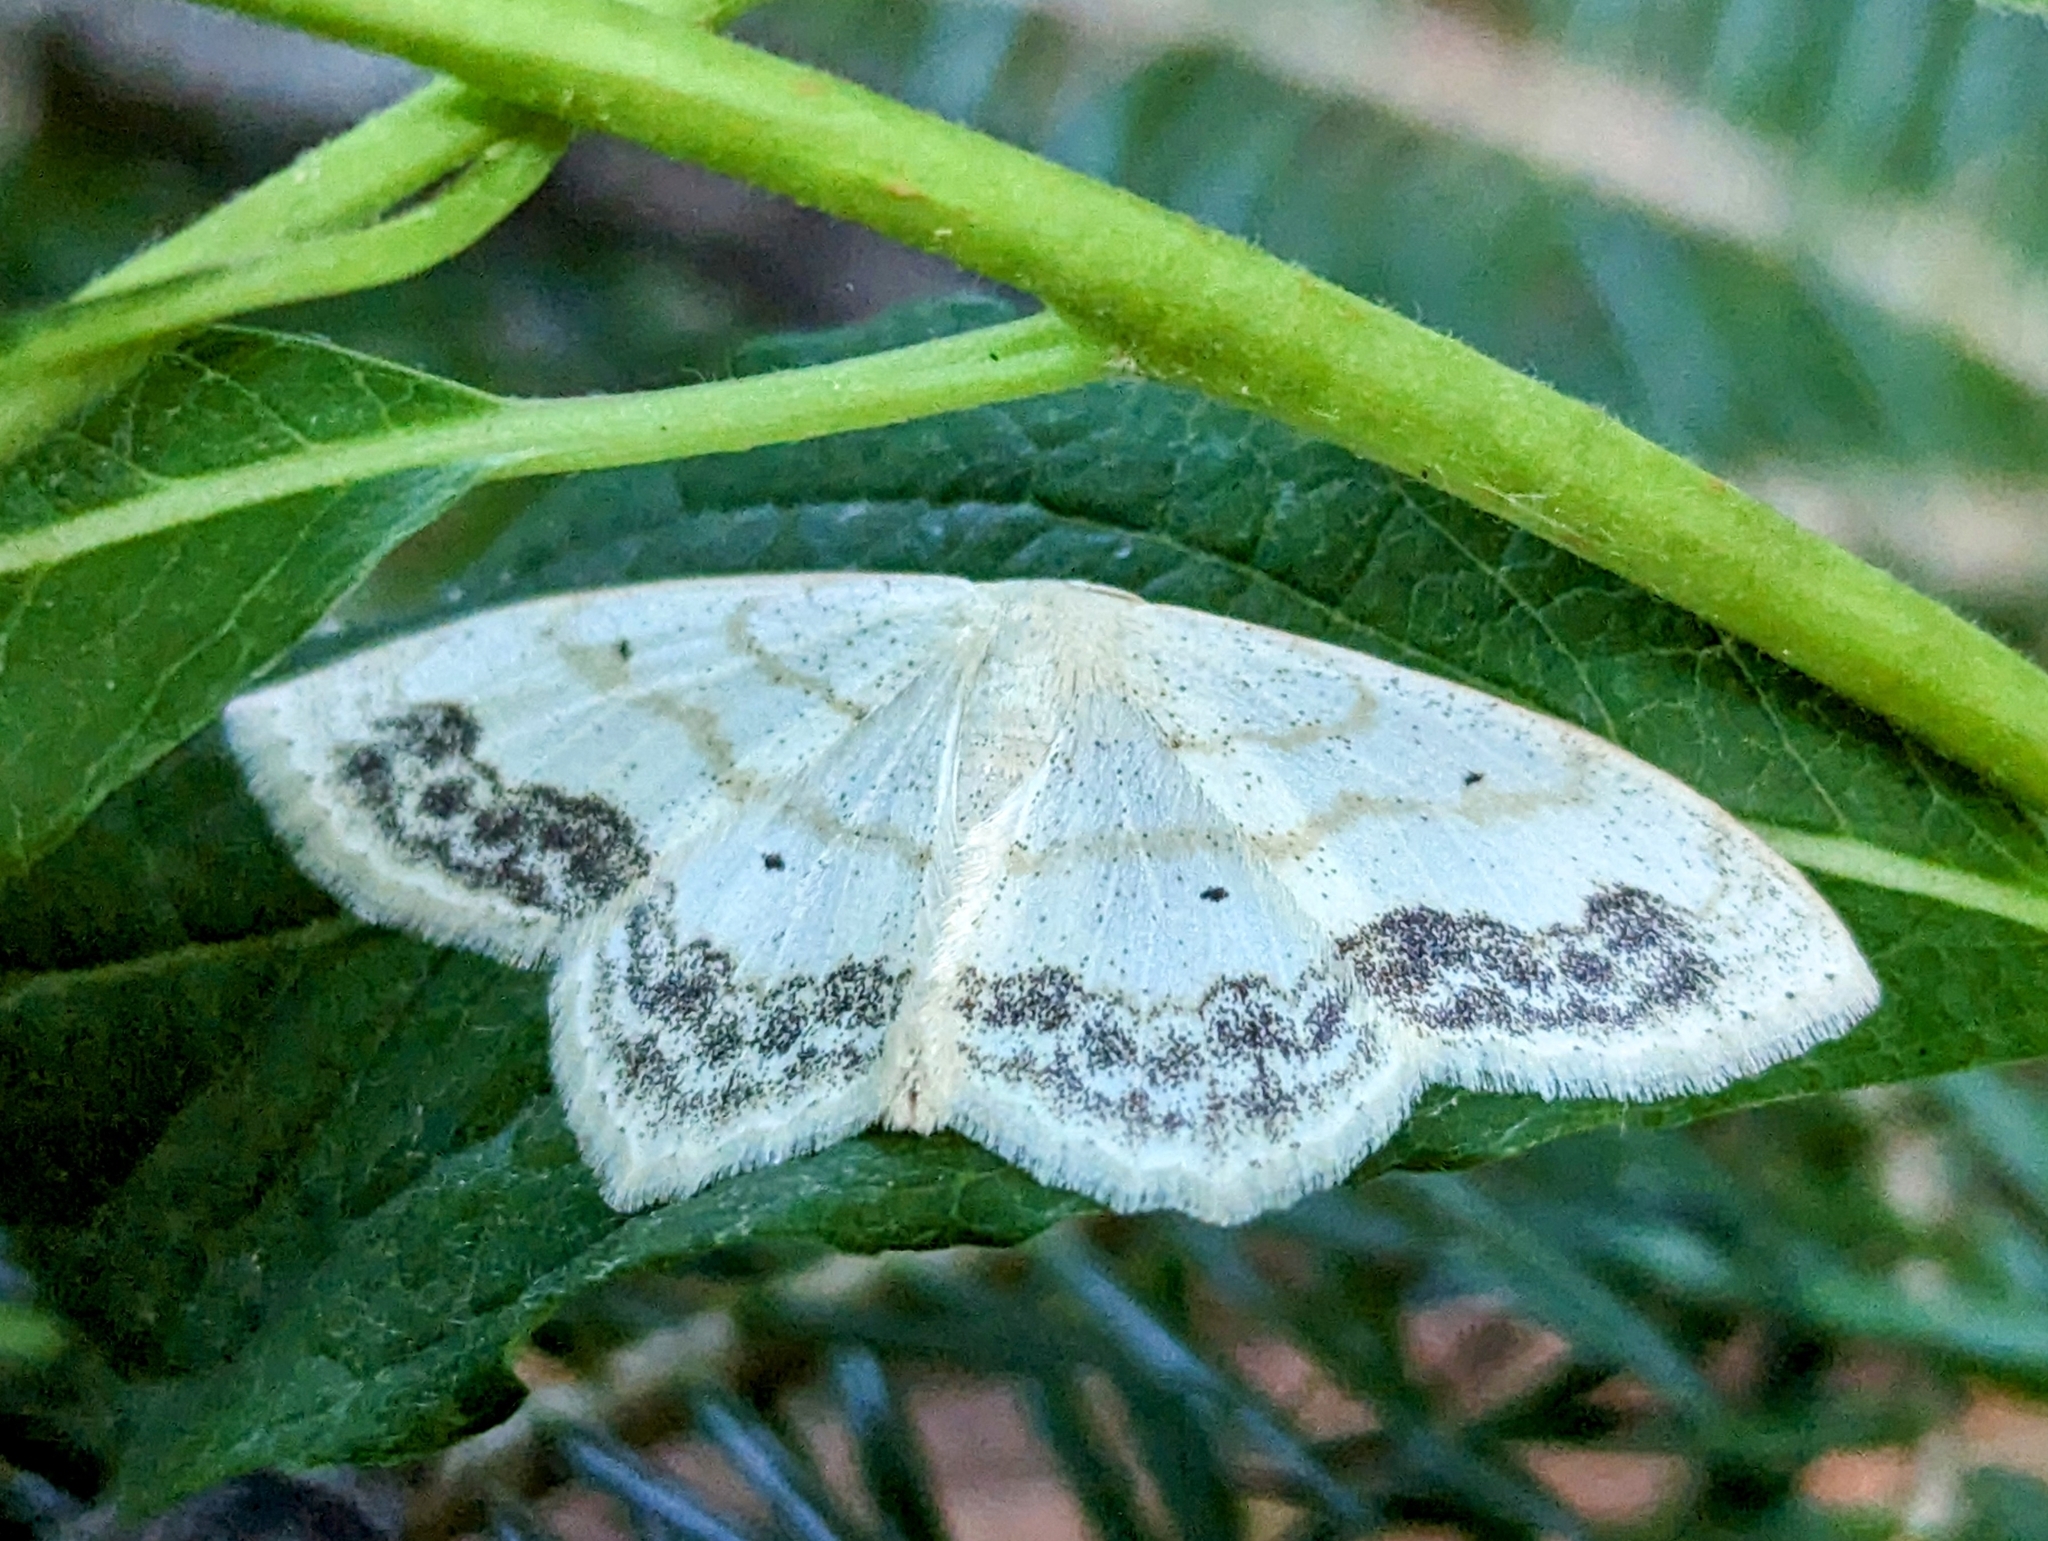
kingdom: Animalia
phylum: Arthropoda
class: Insecta
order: Lepidoptera
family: Geometridae
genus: Scopula
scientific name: Scopula limboundata
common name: Large lace border
